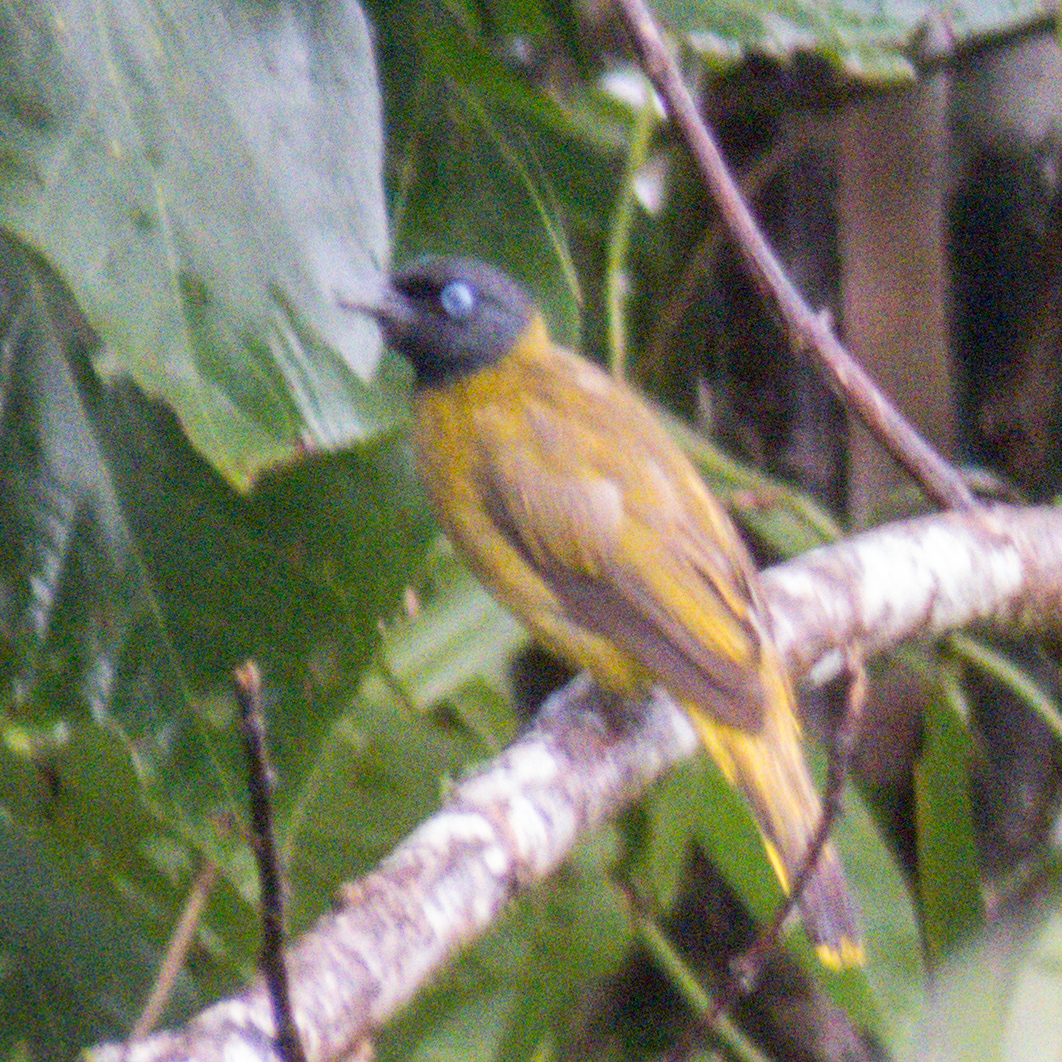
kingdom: Animalia
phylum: Chordata
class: Aves
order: Passeriformes
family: Pycnonotidae
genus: Microtarsus
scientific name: Microtarsus
